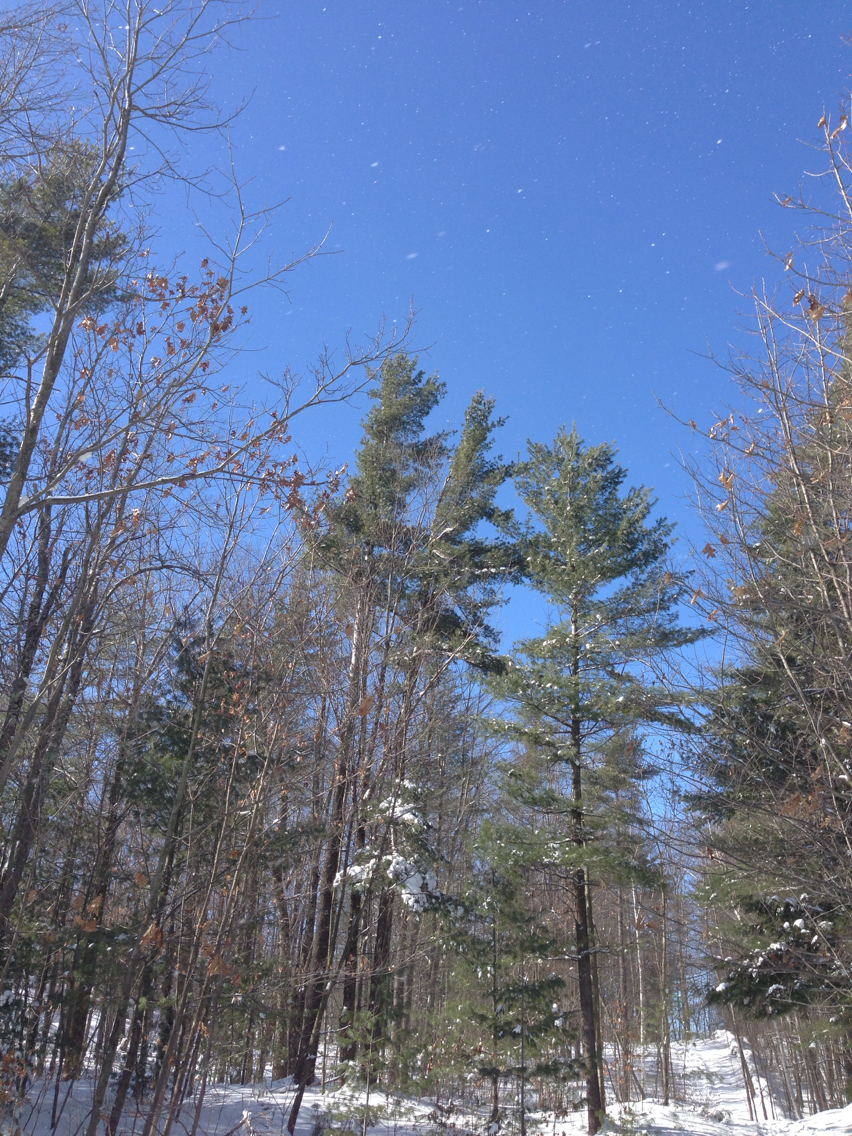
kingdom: Plantae
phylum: Tracheophyta
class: Pinopsida
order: Pinales
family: Pinaceae
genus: Pinus
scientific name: Pinus strobus
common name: Weymouth pine
